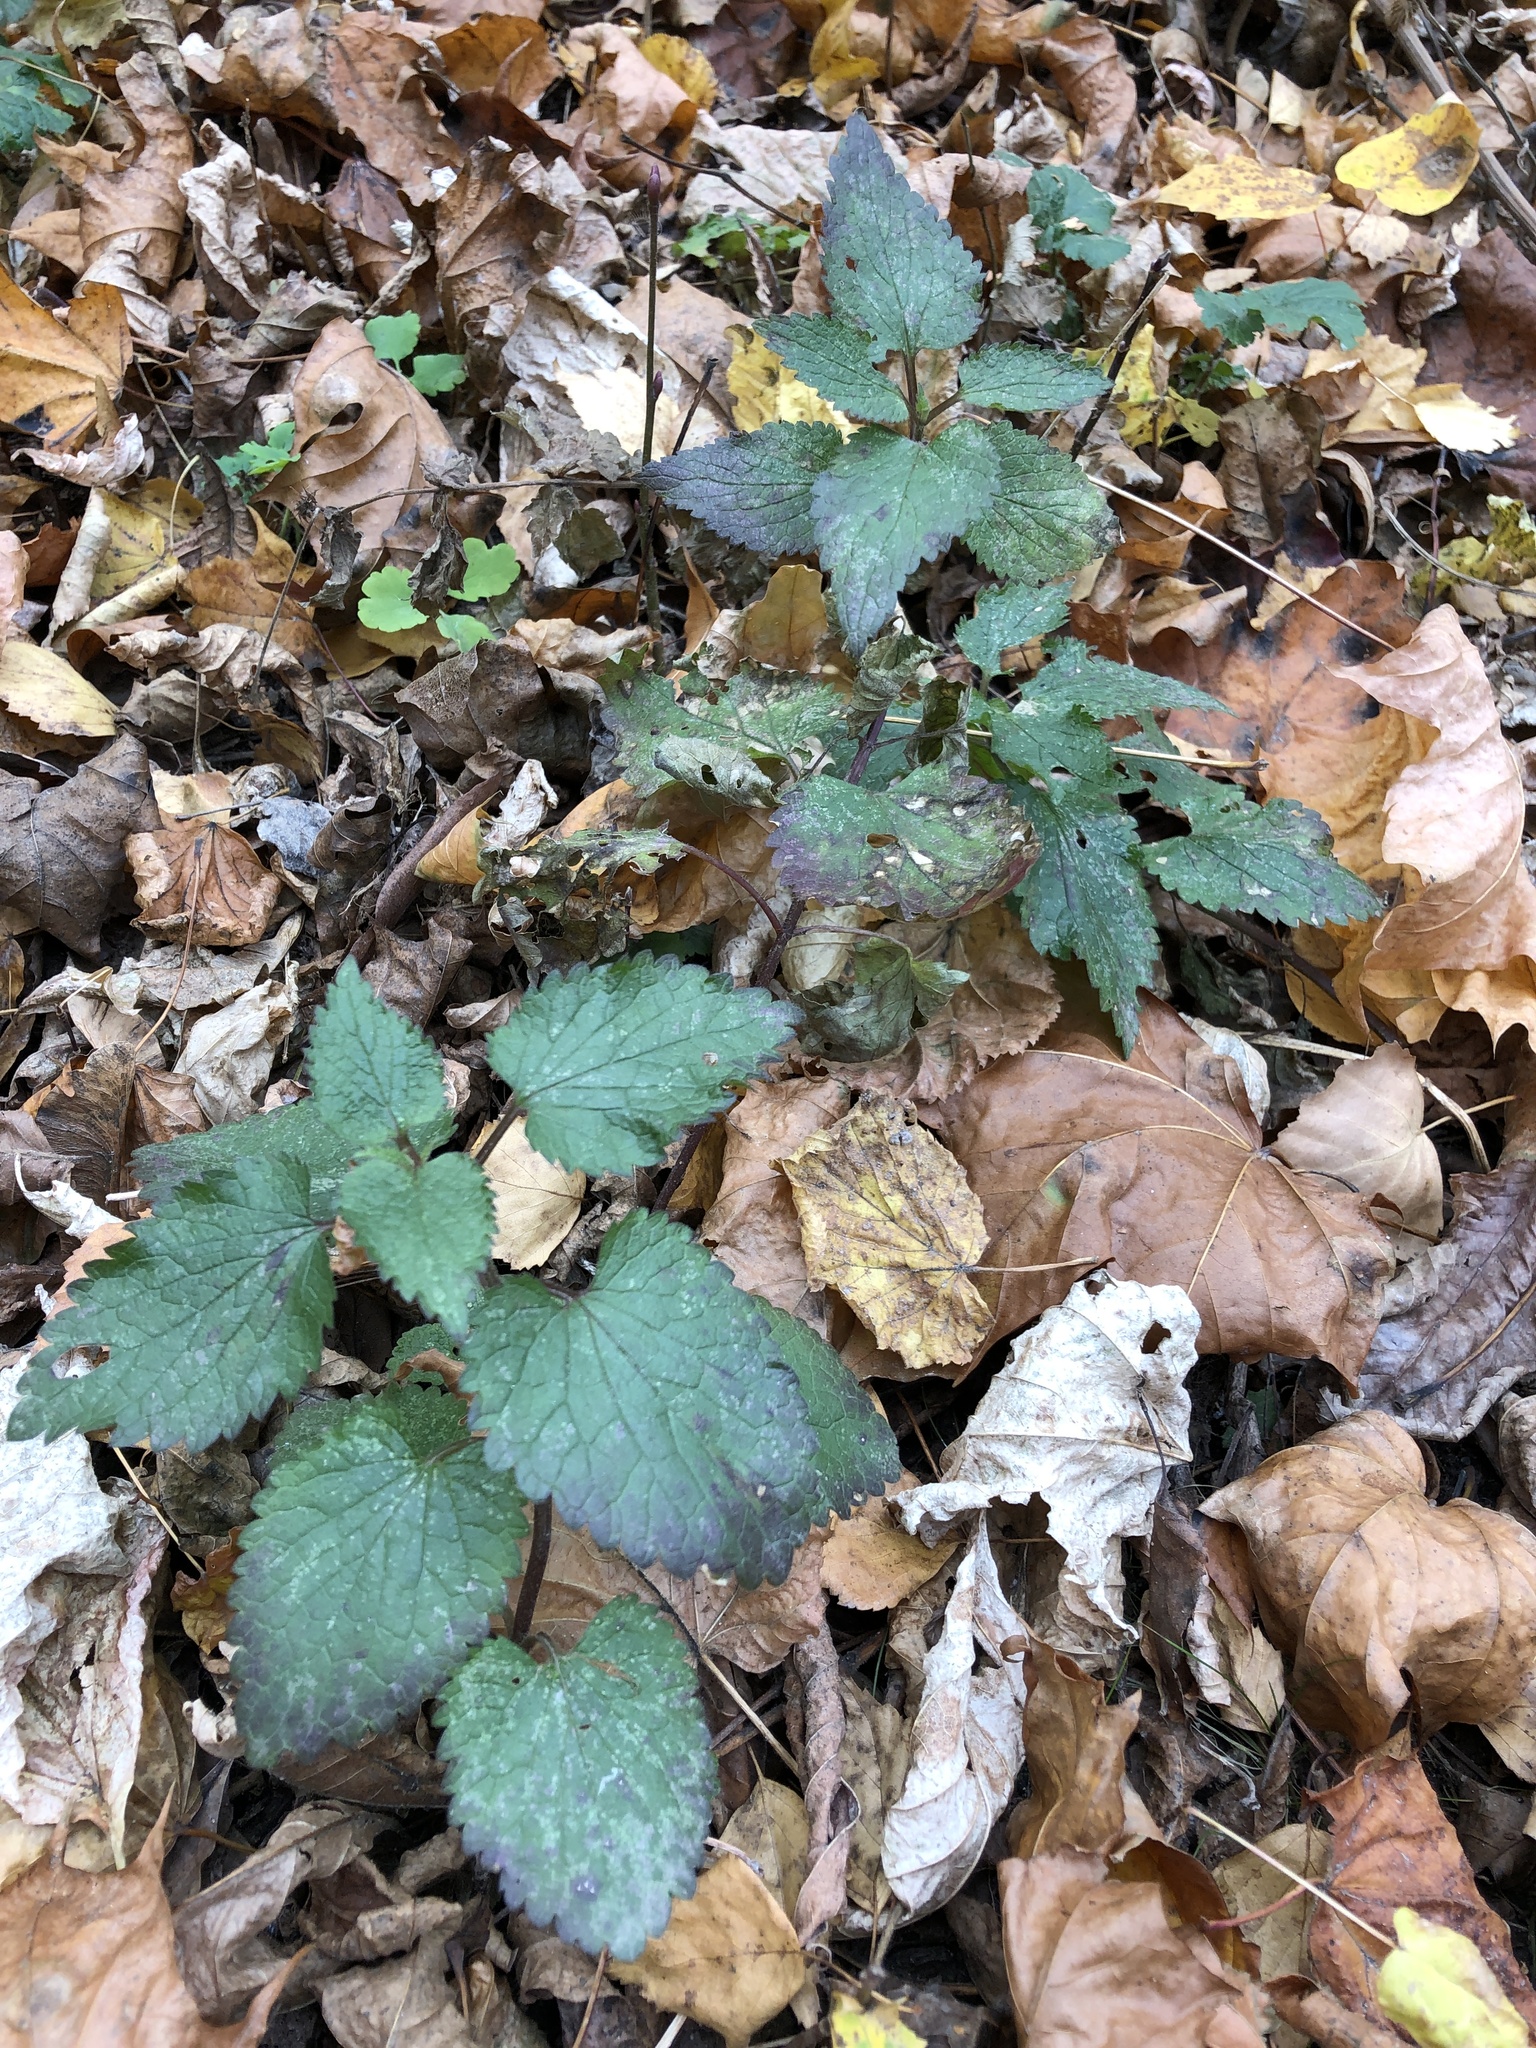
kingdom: Plantae
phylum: Tracheophyta
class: Magnoliopsida
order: Lamiales
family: Lamiaceae
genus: Lamium
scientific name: Lamium galeobdolon
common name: Yellow archangel
